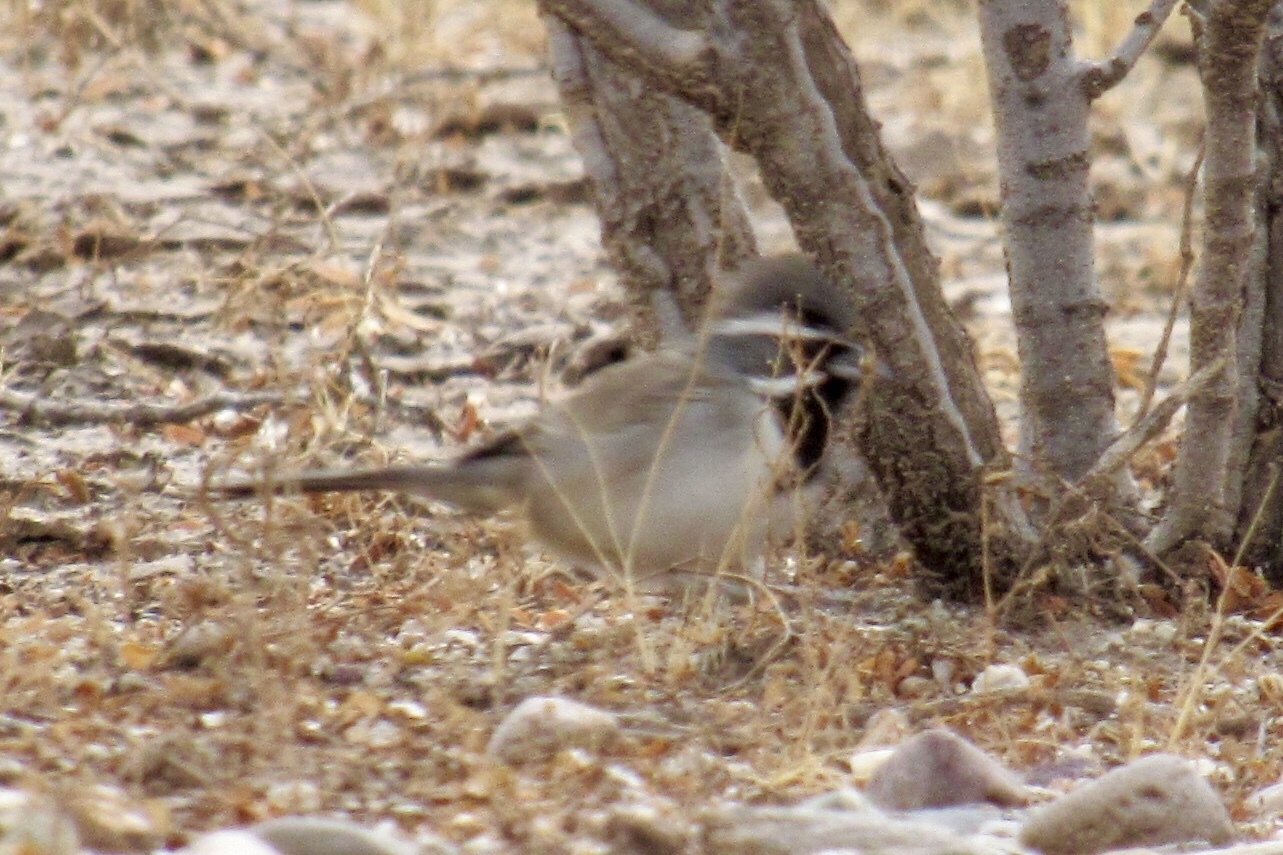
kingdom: Animalia
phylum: Chordata
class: Aves
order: Passeriformes
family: Passerellidae
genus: Amphispiza
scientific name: Amphispiza bilineata
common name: Black-throated sparrow
